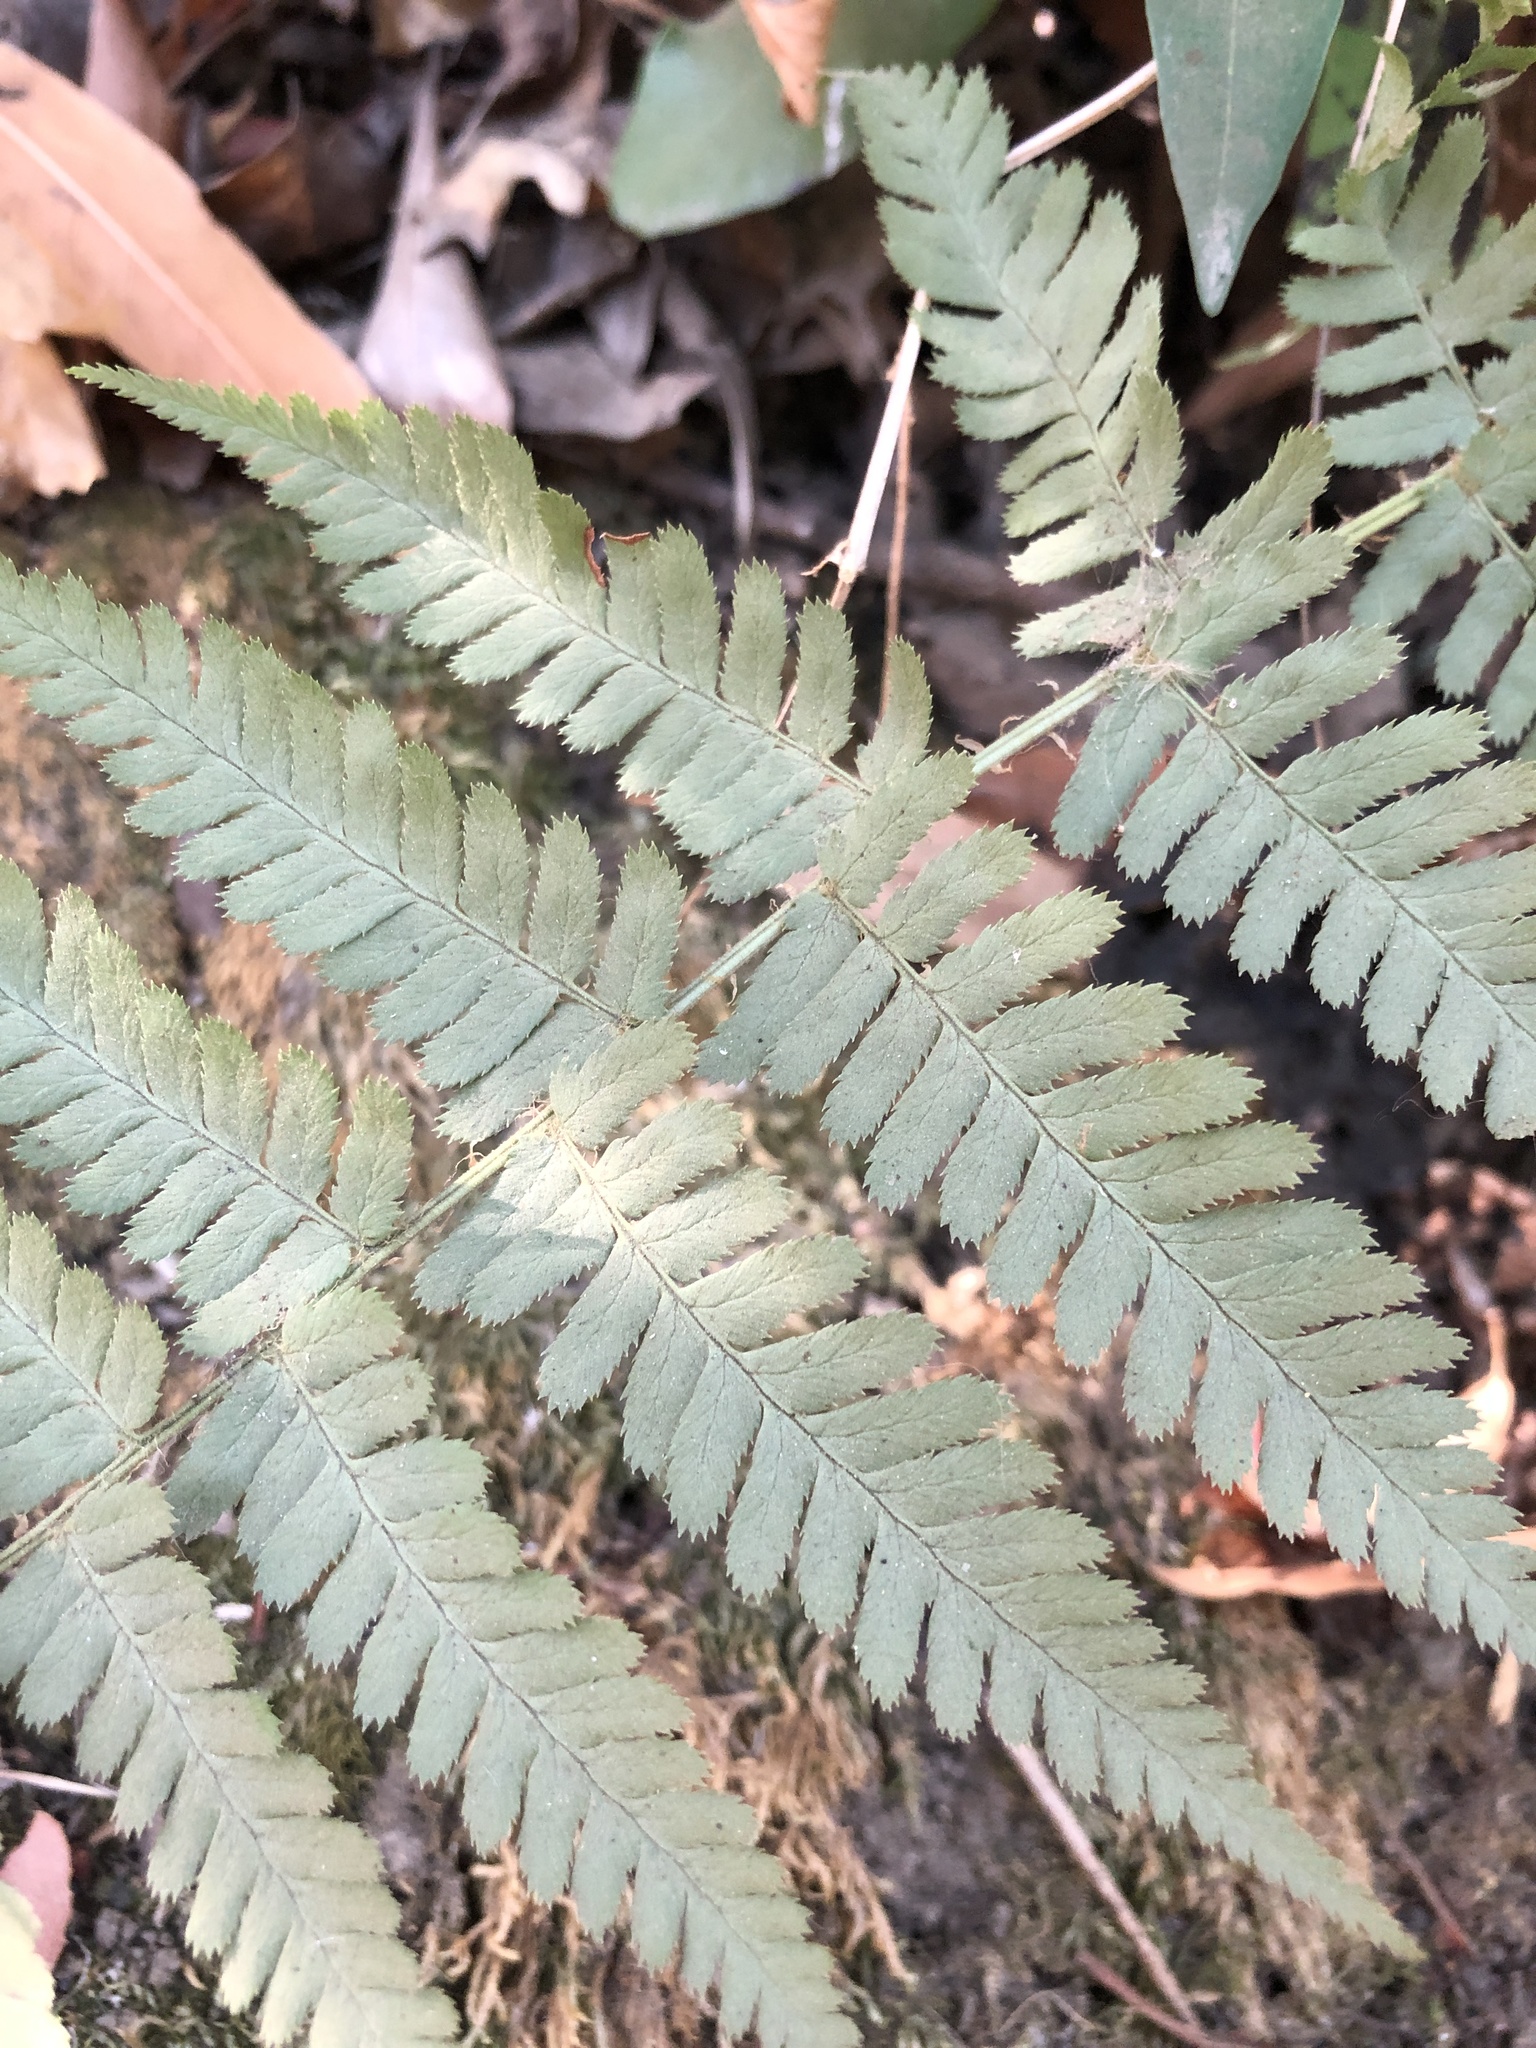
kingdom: Plantae
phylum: Tracheophyta
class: Polypodiopsida
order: Polypodiales
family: Dryopteridaceae
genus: Dryopteris
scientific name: Dryopteris arguta
